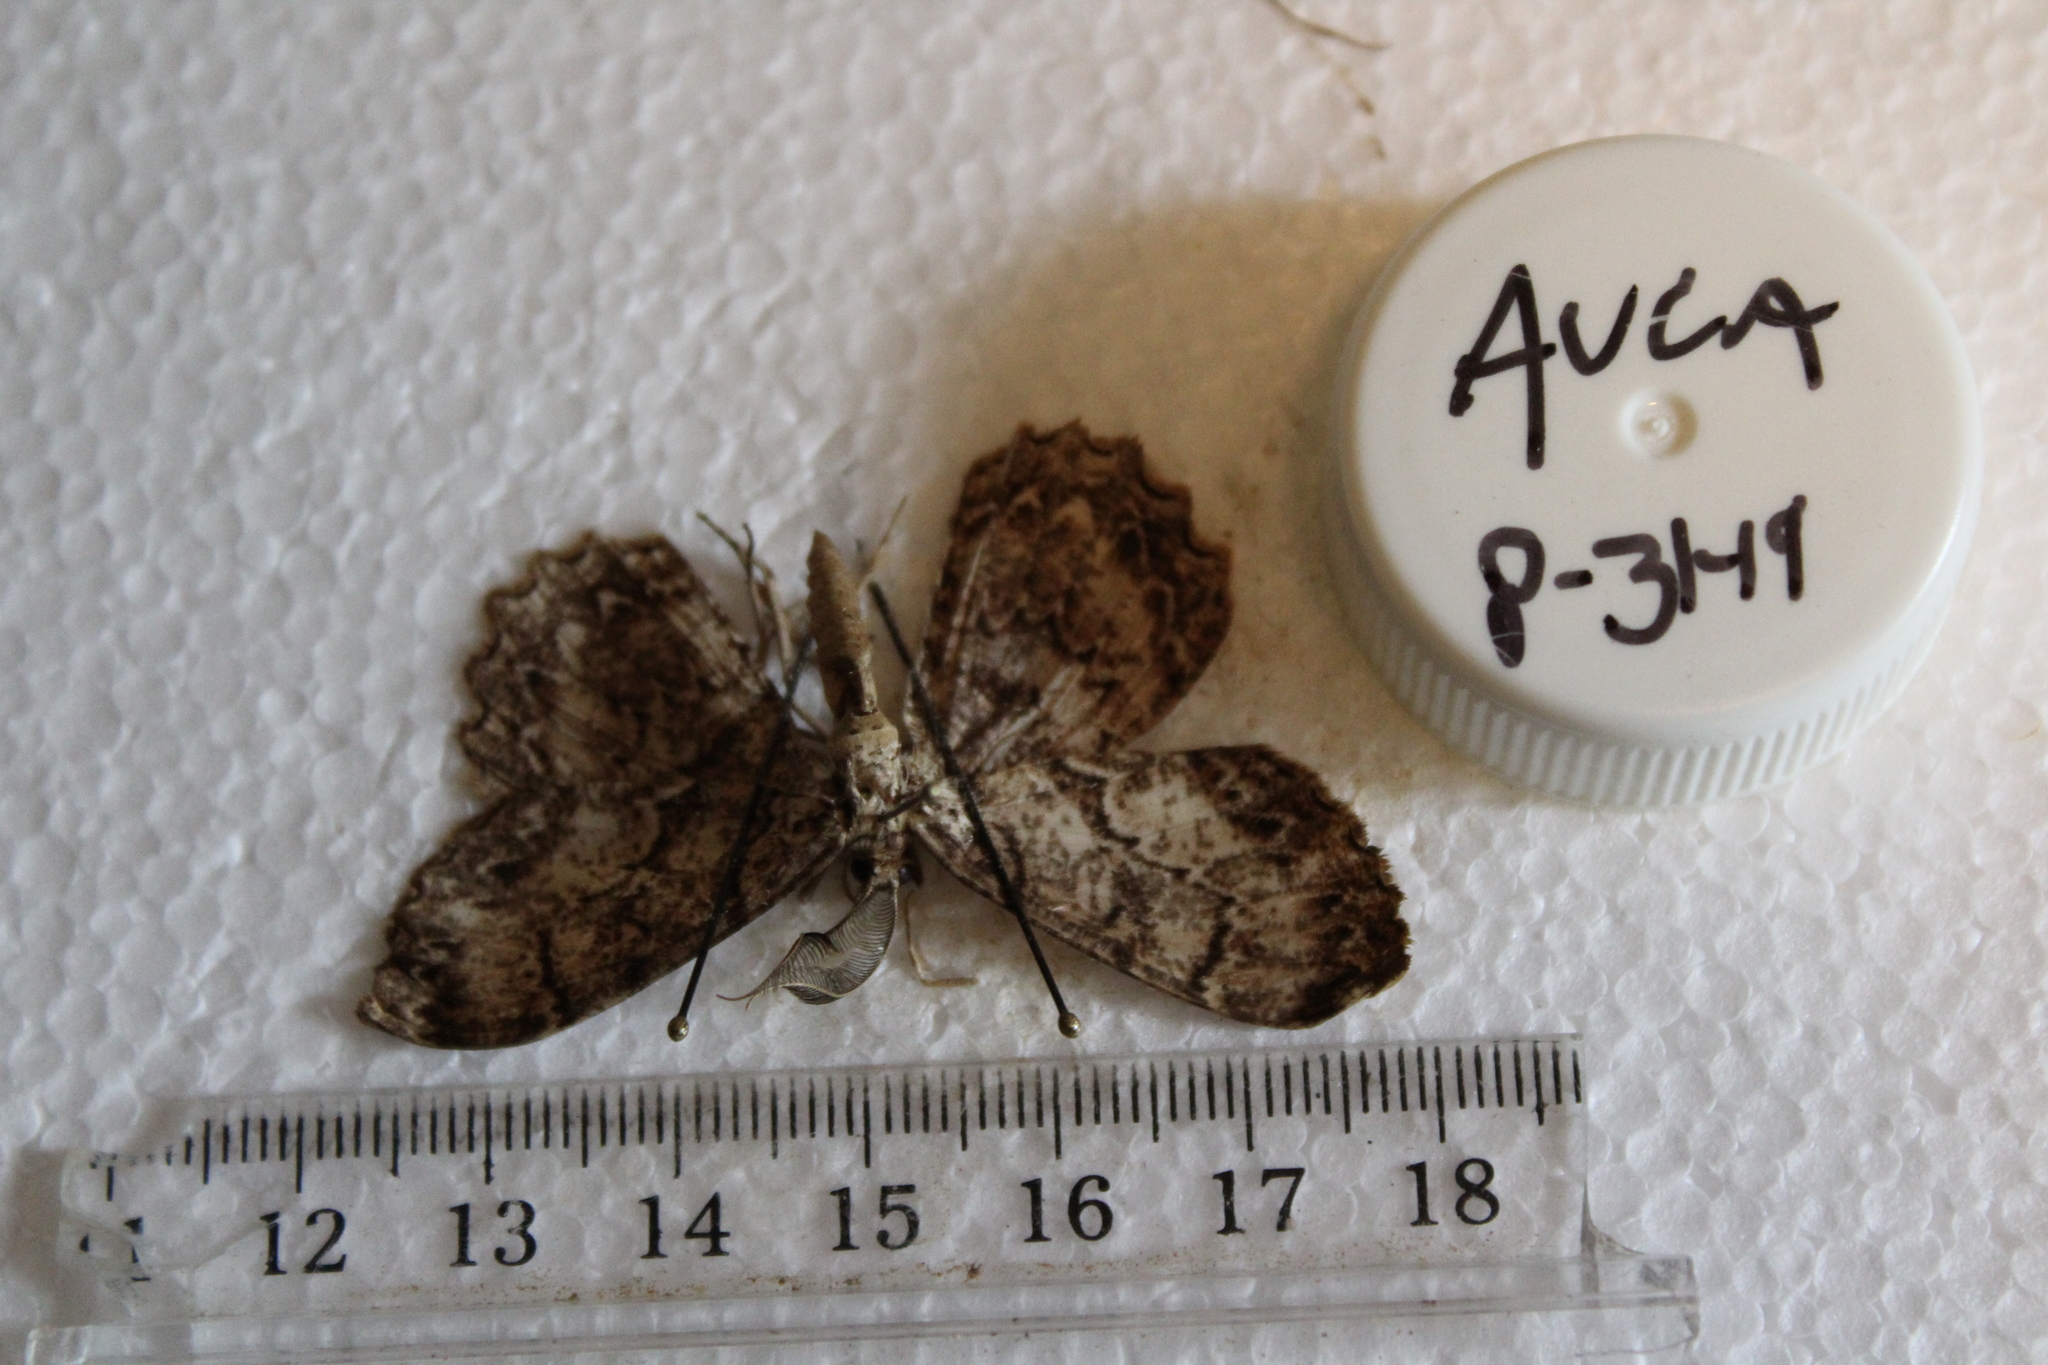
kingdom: Animalia
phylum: Arthropoda
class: Insecta
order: Lepidoptera
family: Geometridae
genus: Epimecis
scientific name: Epimecis hortaria
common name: Tulip-tree beauty
